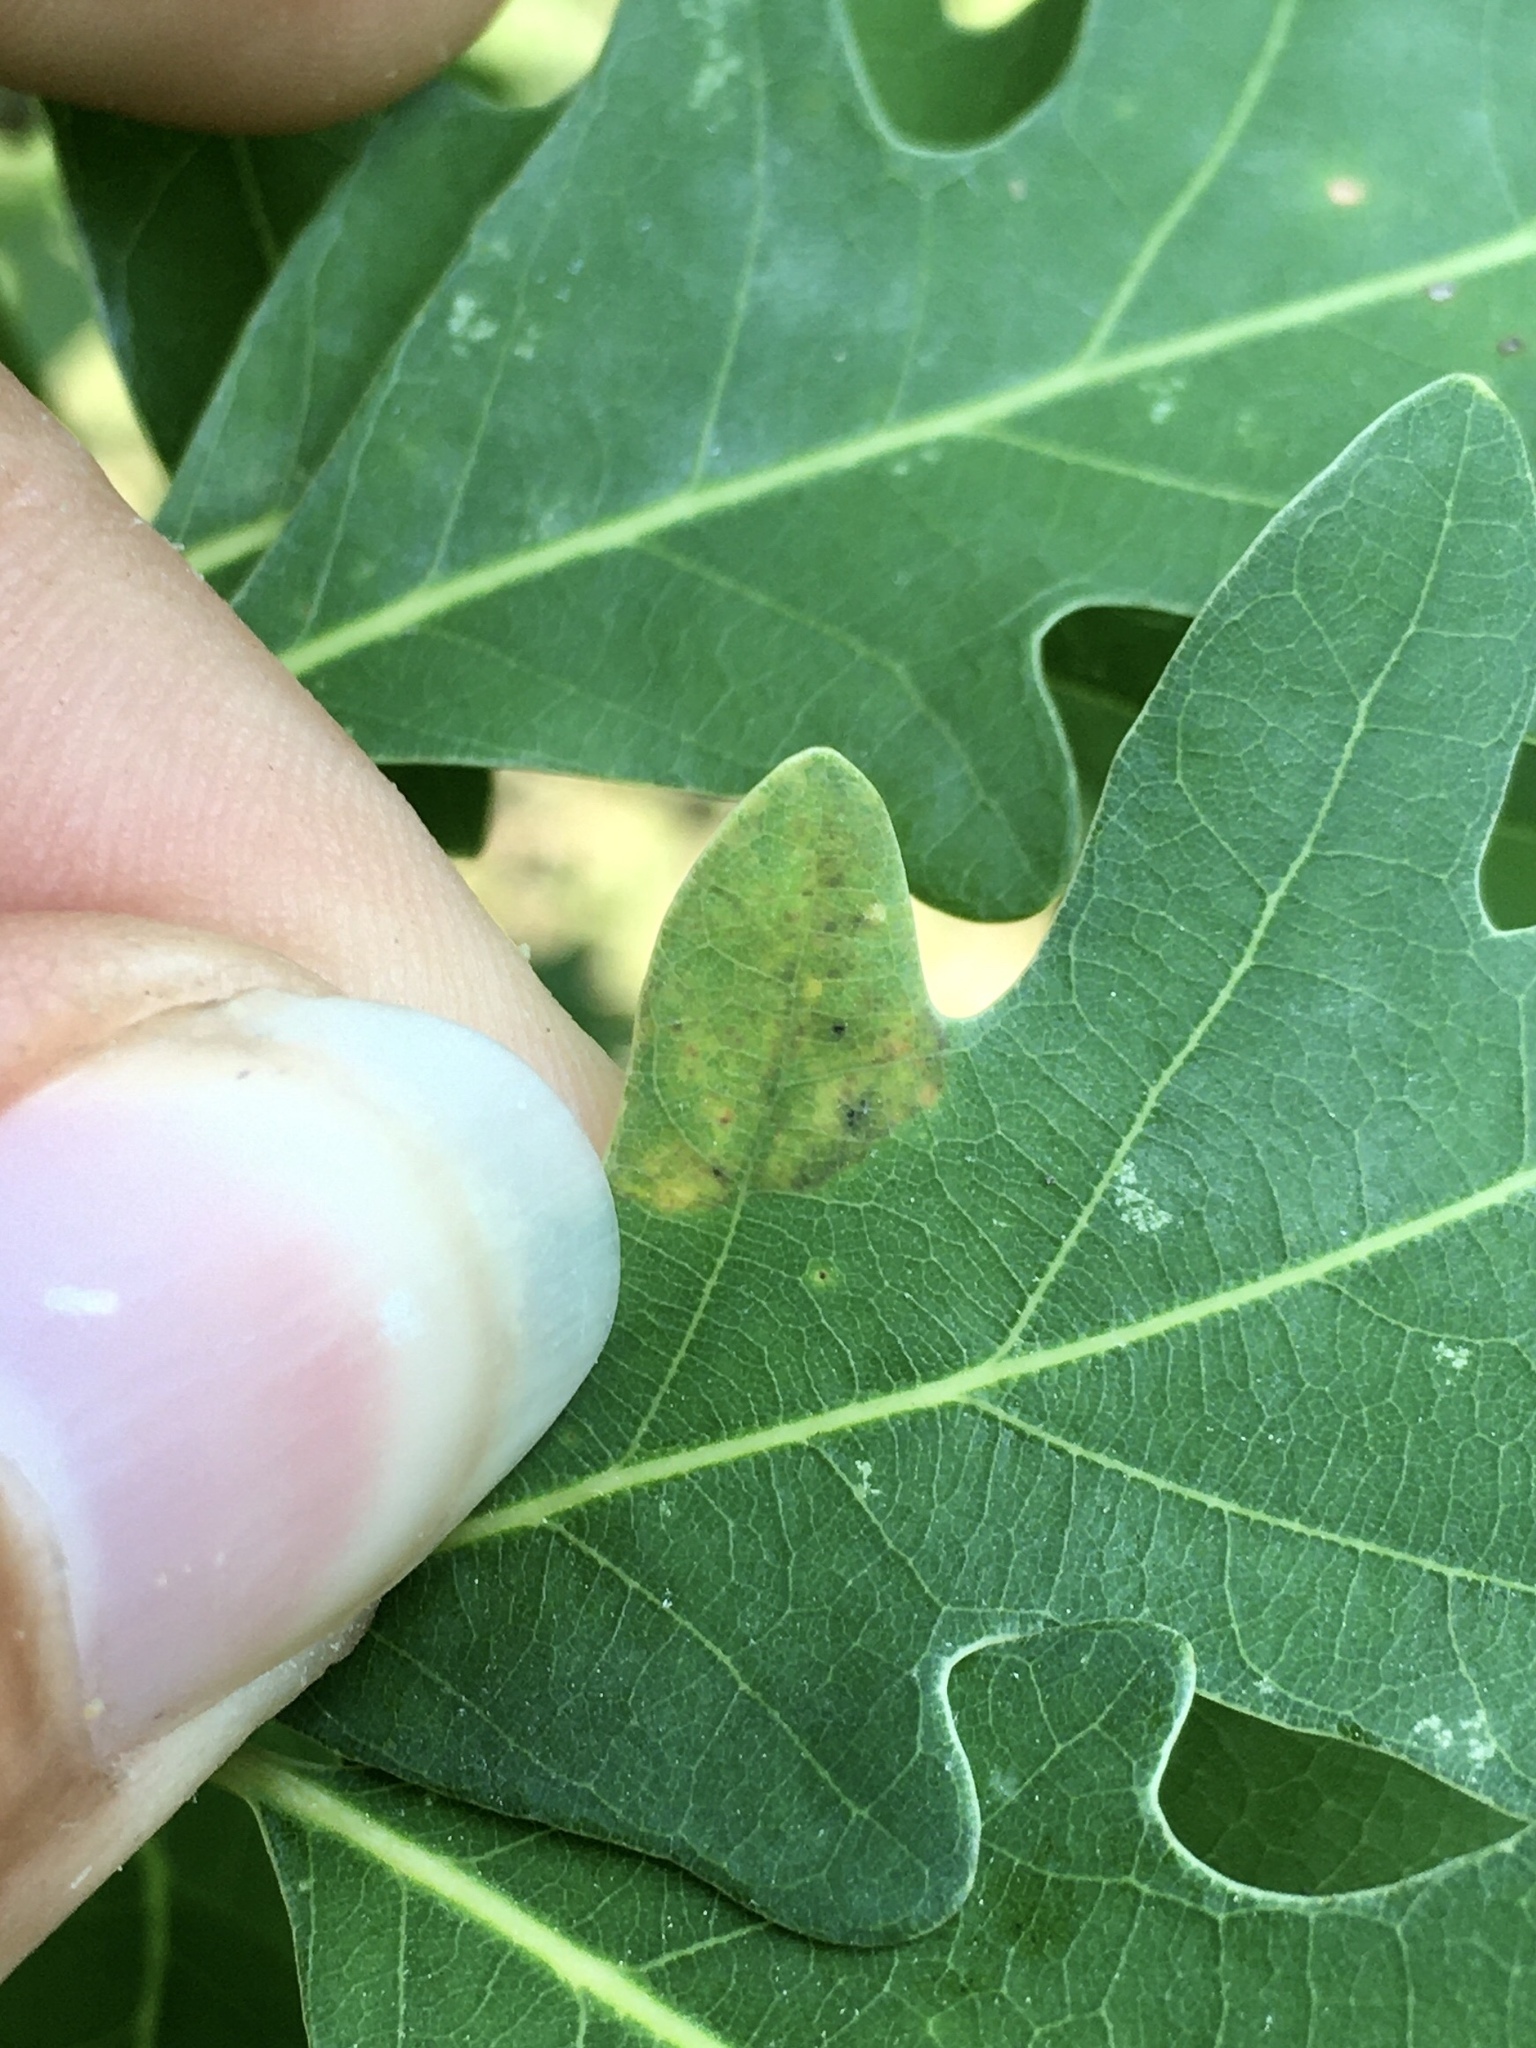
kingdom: Animalia
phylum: Arthropoda
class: Insecta
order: Lepidoptera
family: Gracillariidae
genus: Phyllonorycter
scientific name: Phyllonorycter
